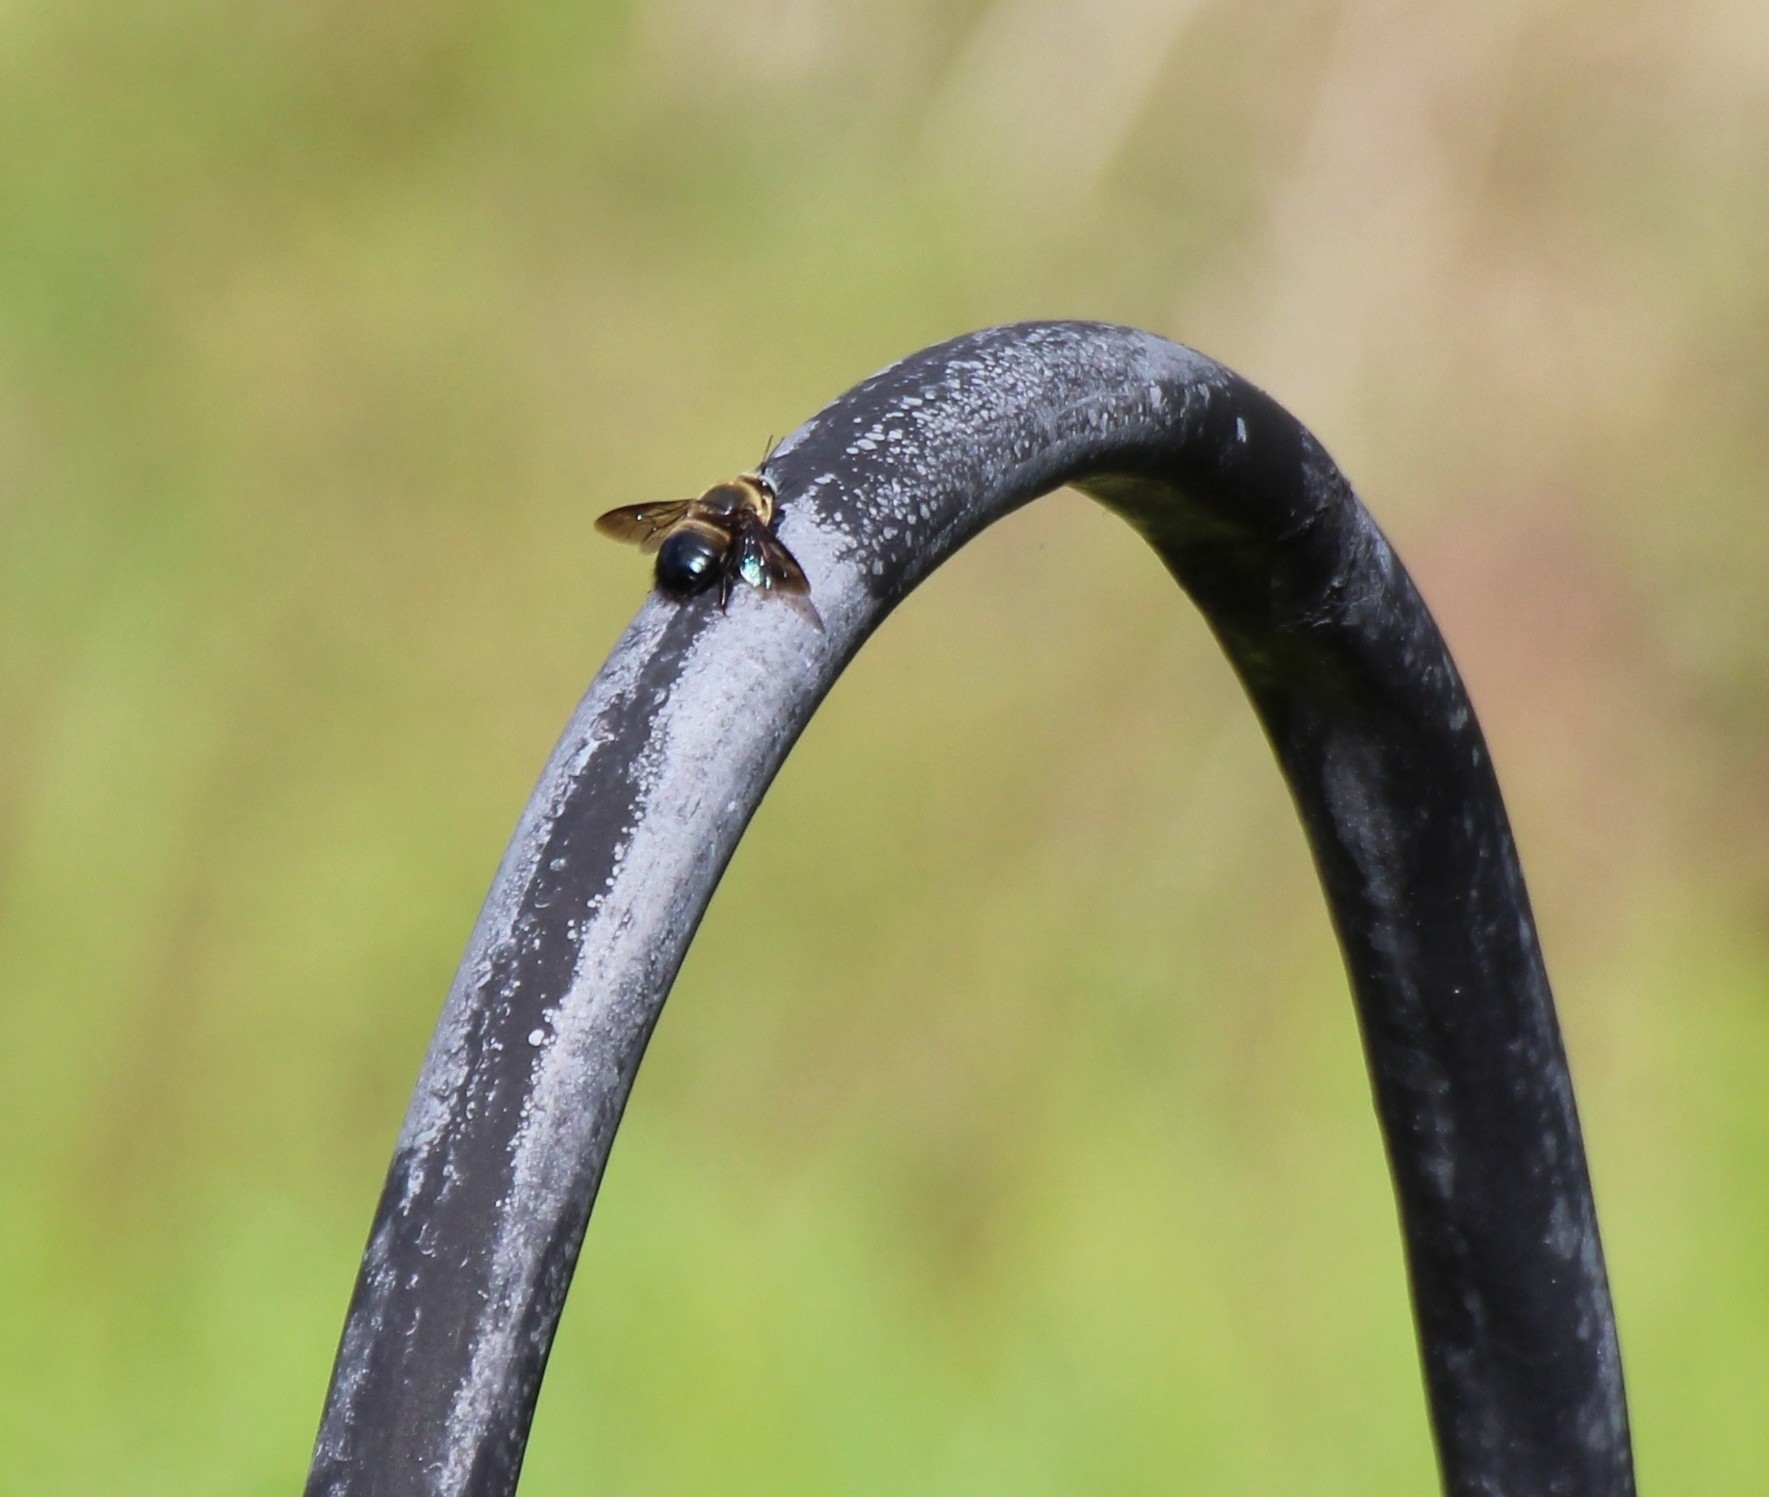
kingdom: Animalia
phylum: Arthropoda
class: Insecta
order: Hymenoptera
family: Apidae
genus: Xylocopa
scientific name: Xylocopa dejeanii
